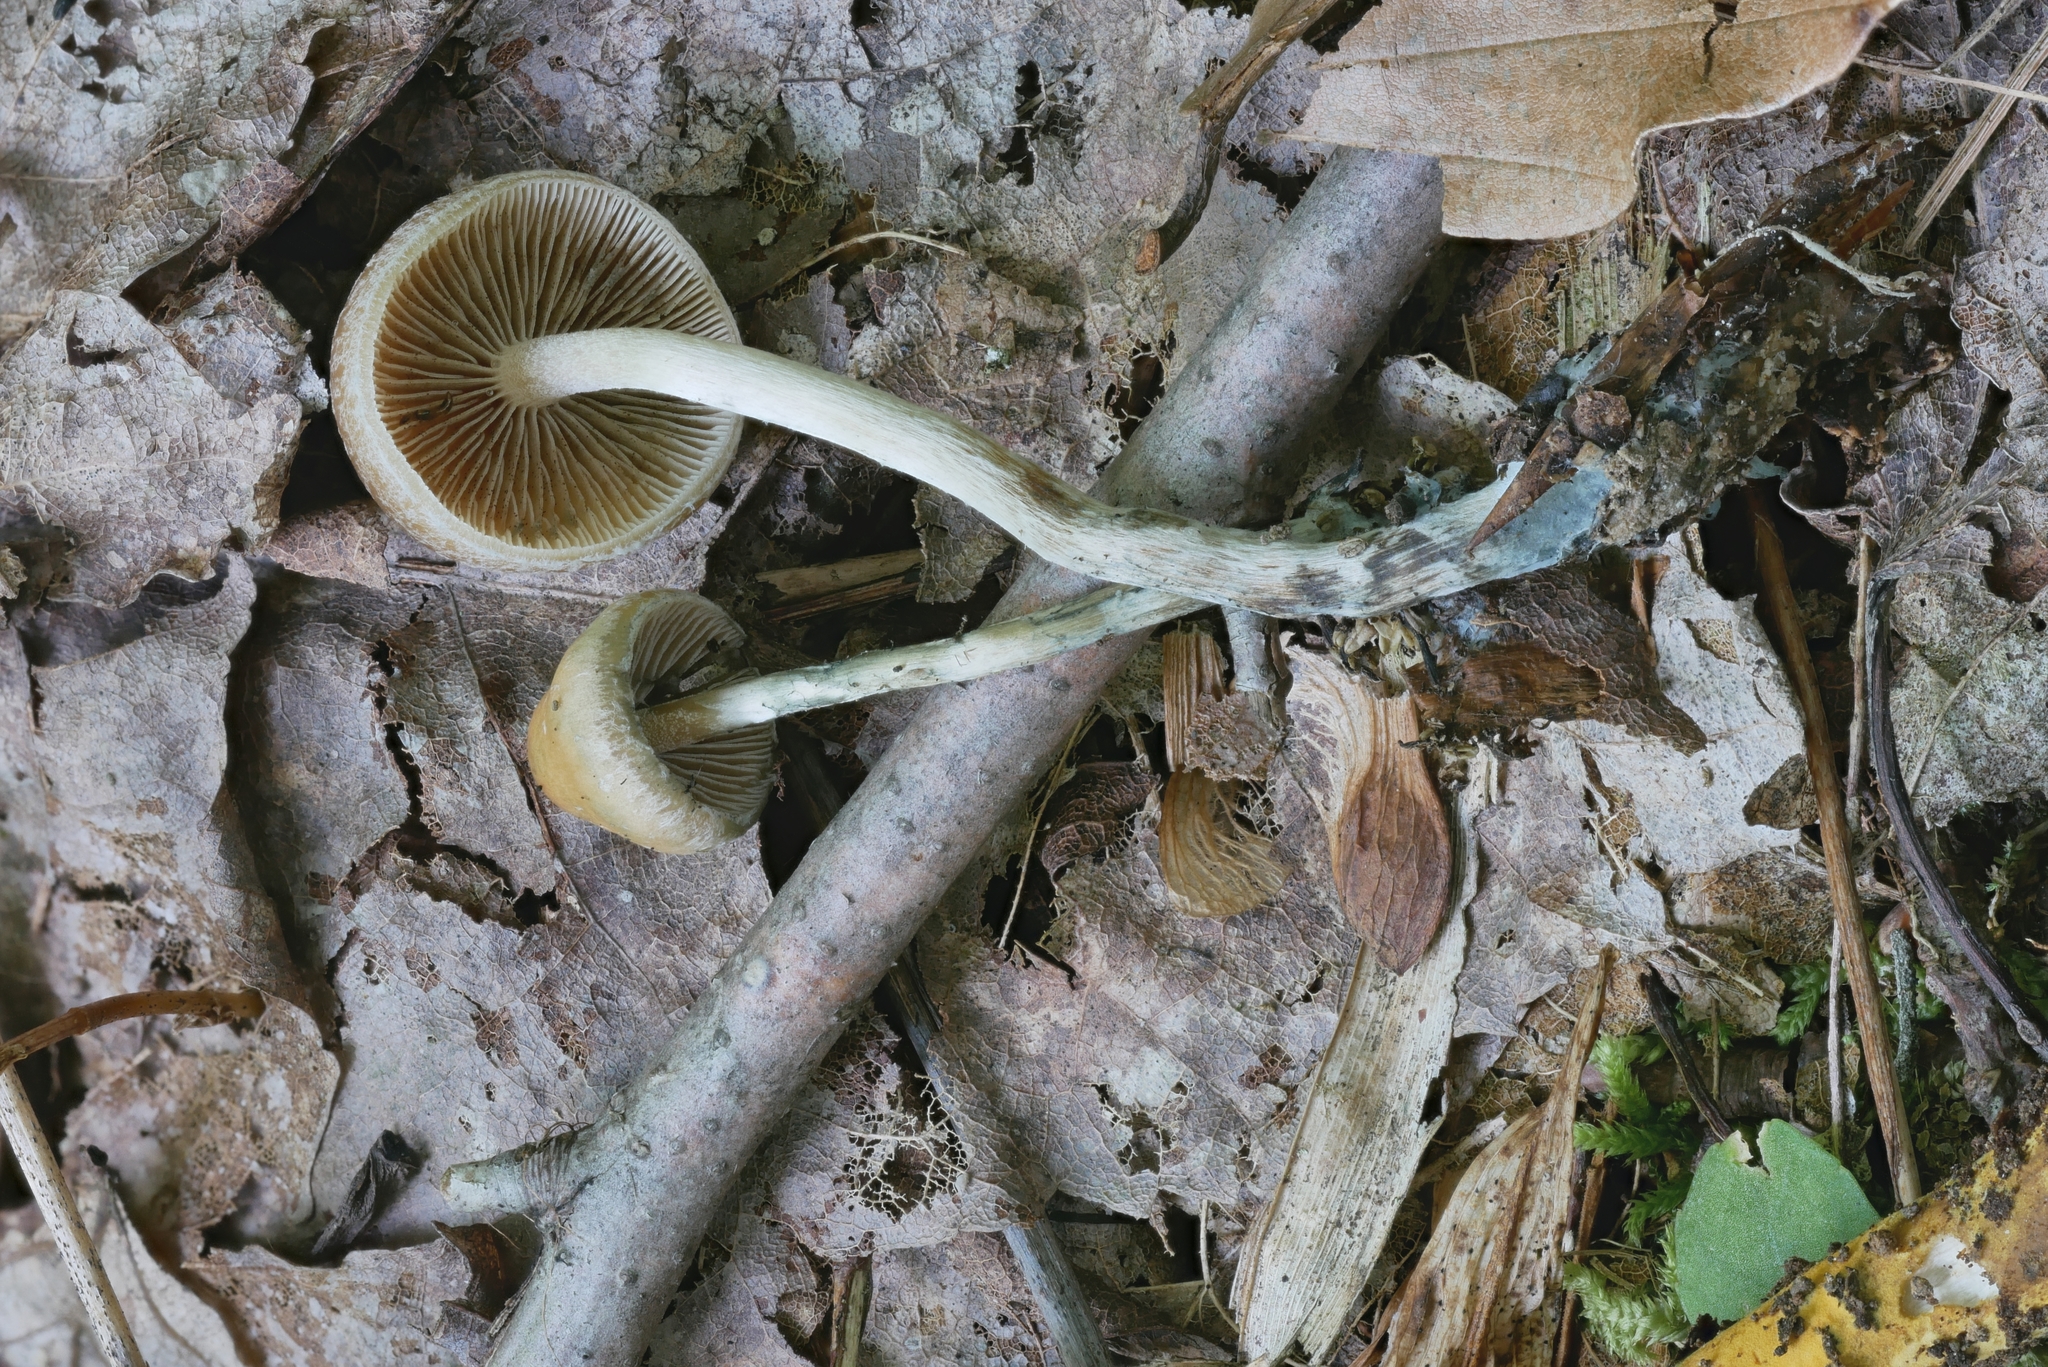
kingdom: Fungi
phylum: Basidiomycota
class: Agaricomycetes
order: Agaricales
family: Hymenogastraceae
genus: Psilocybe
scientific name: Psilocybe caerulipes
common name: Blue-foot
